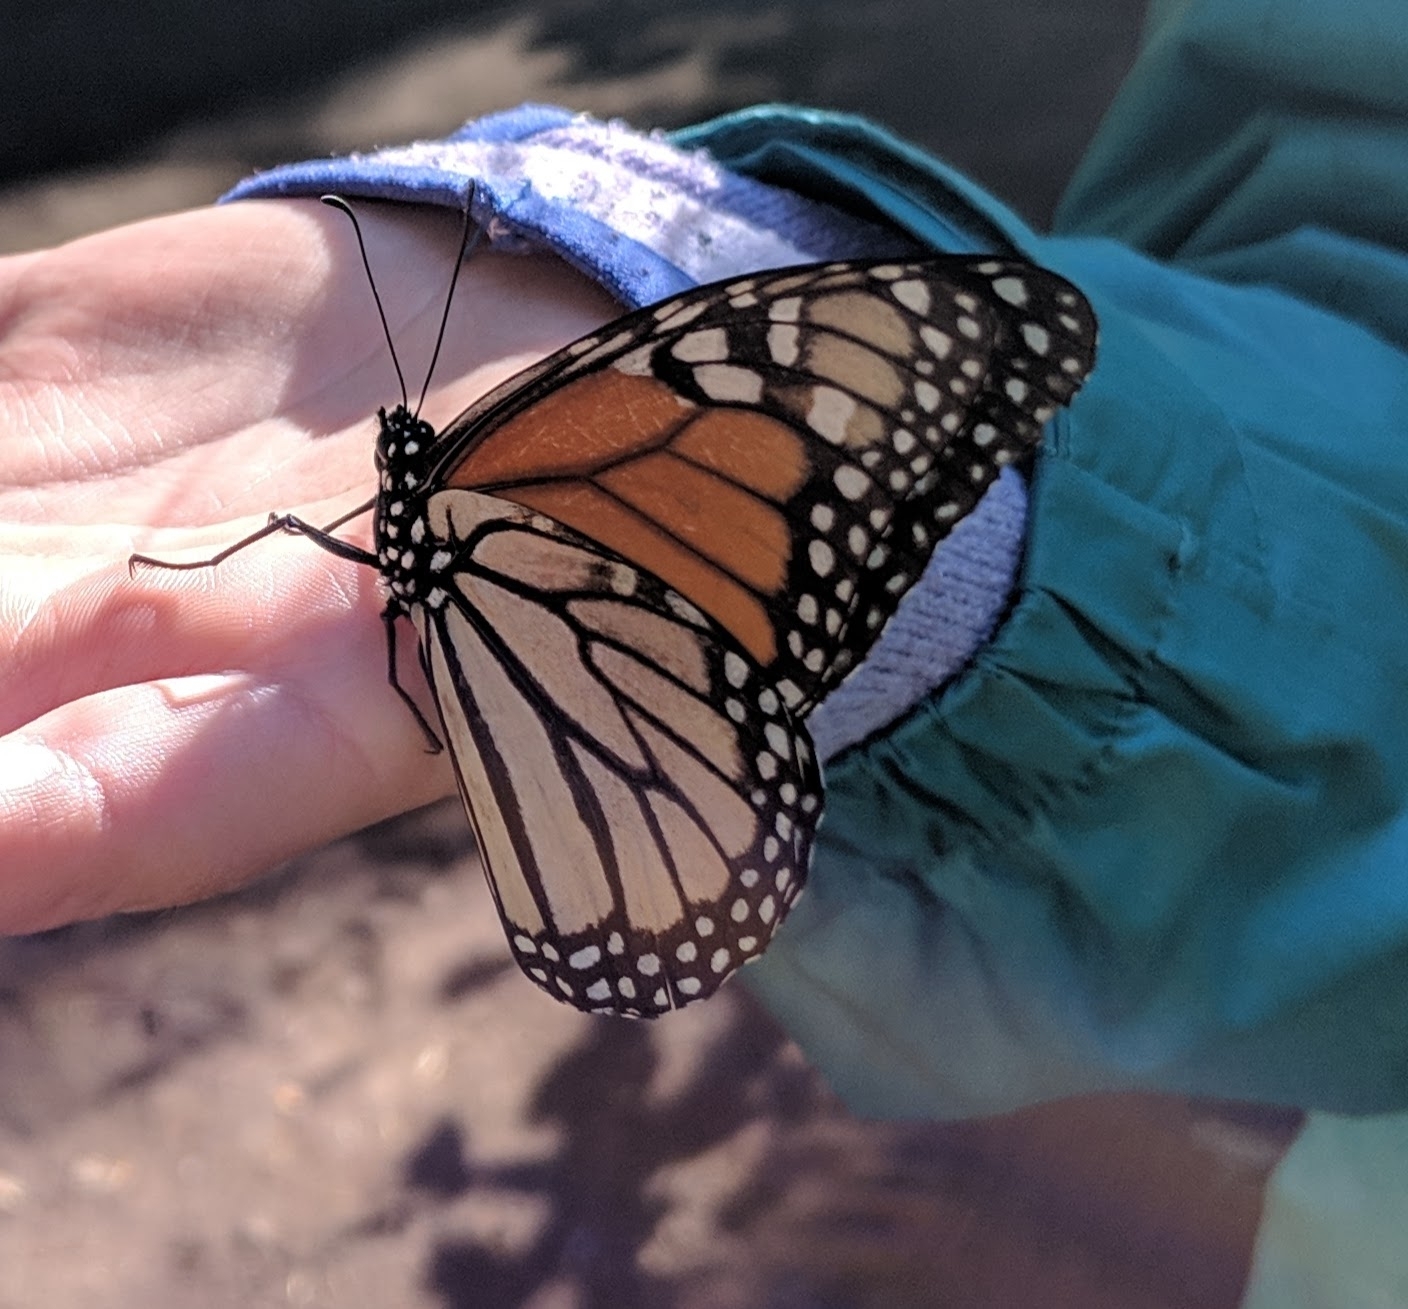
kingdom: Animalia
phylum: Arthropoda
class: Insecta
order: Lepidoptera
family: Nymphalidae
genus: Danaus
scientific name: Danaus plexippus
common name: Monarch
